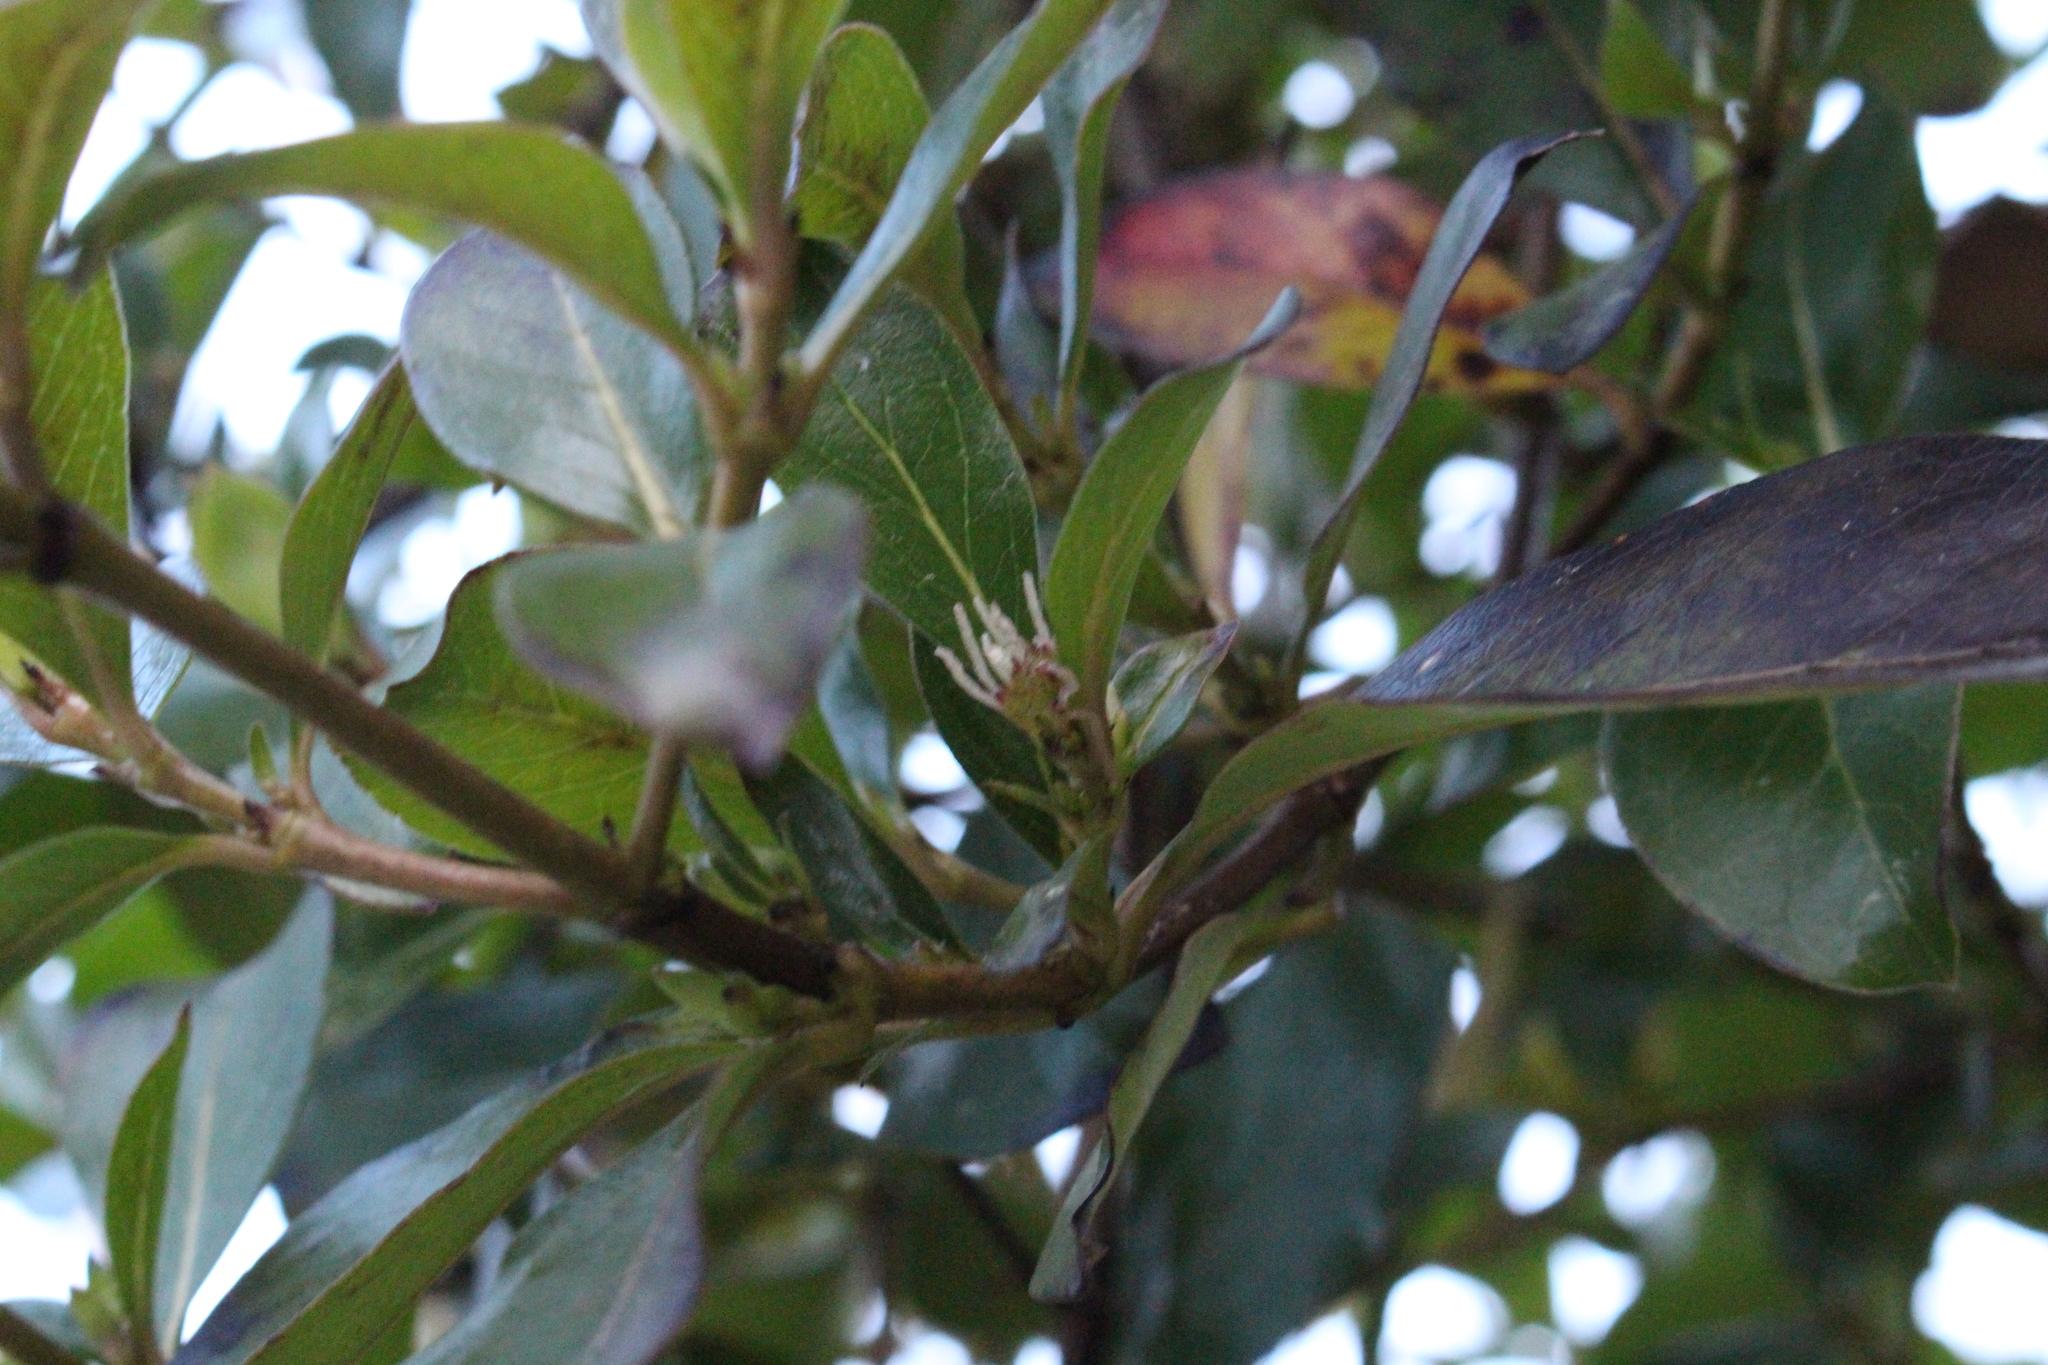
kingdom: Plantae
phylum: Tracheophyta
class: Magnoliopsida
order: Gentianales
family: Rubiaceae
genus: Coprosma
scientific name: Coprosma robusta
